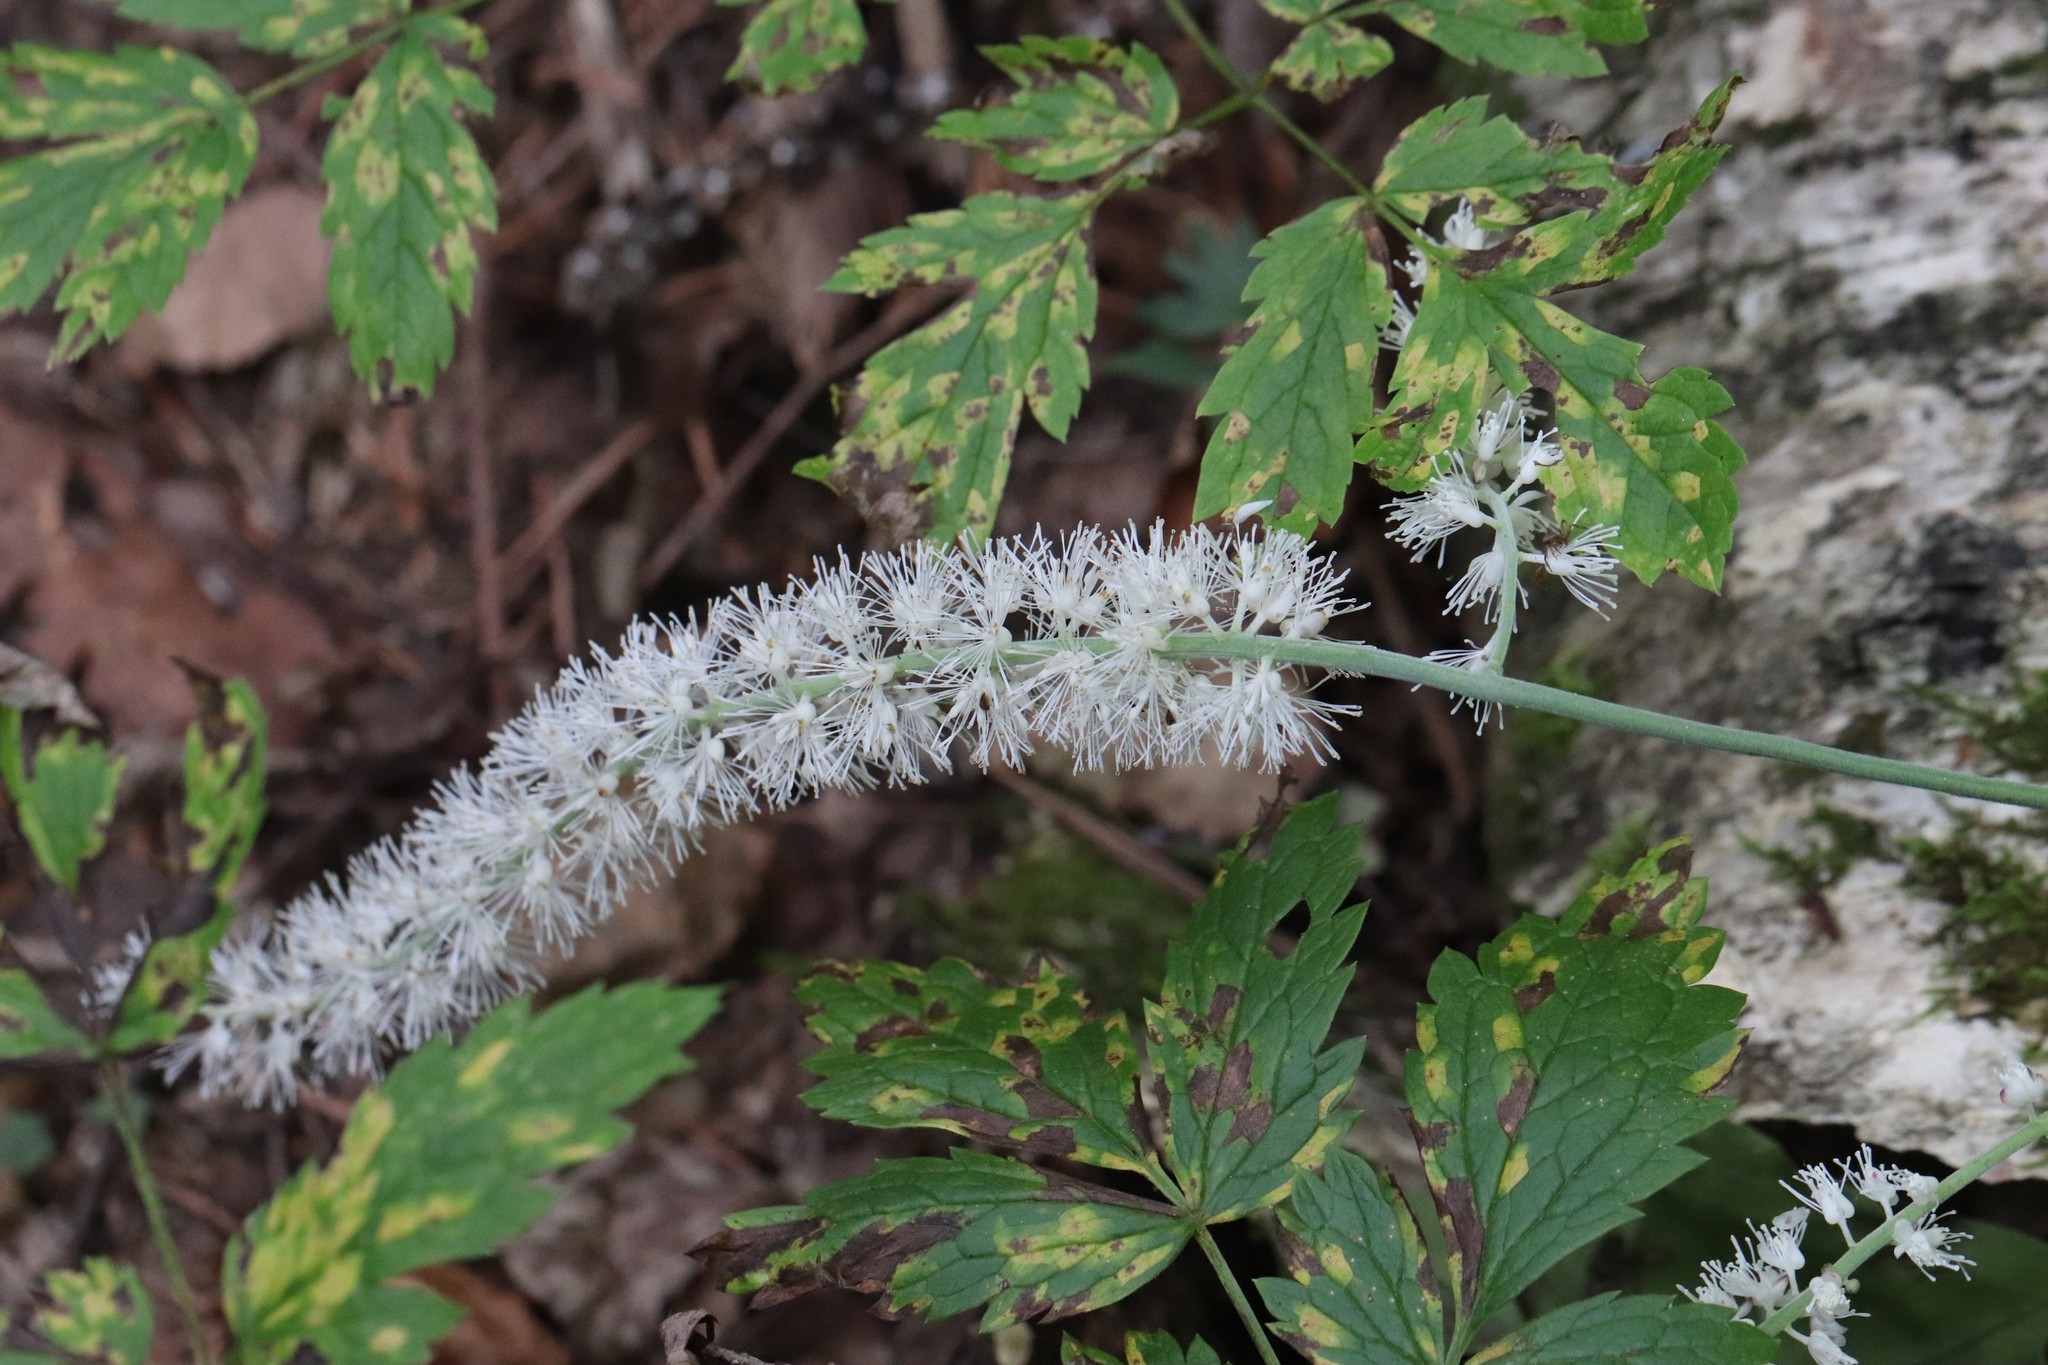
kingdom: Plantae
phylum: Tracheophyta
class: Magnoliopsida
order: Ranunculales
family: Ranunculaceae
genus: Actaea
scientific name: Actaea simplex
